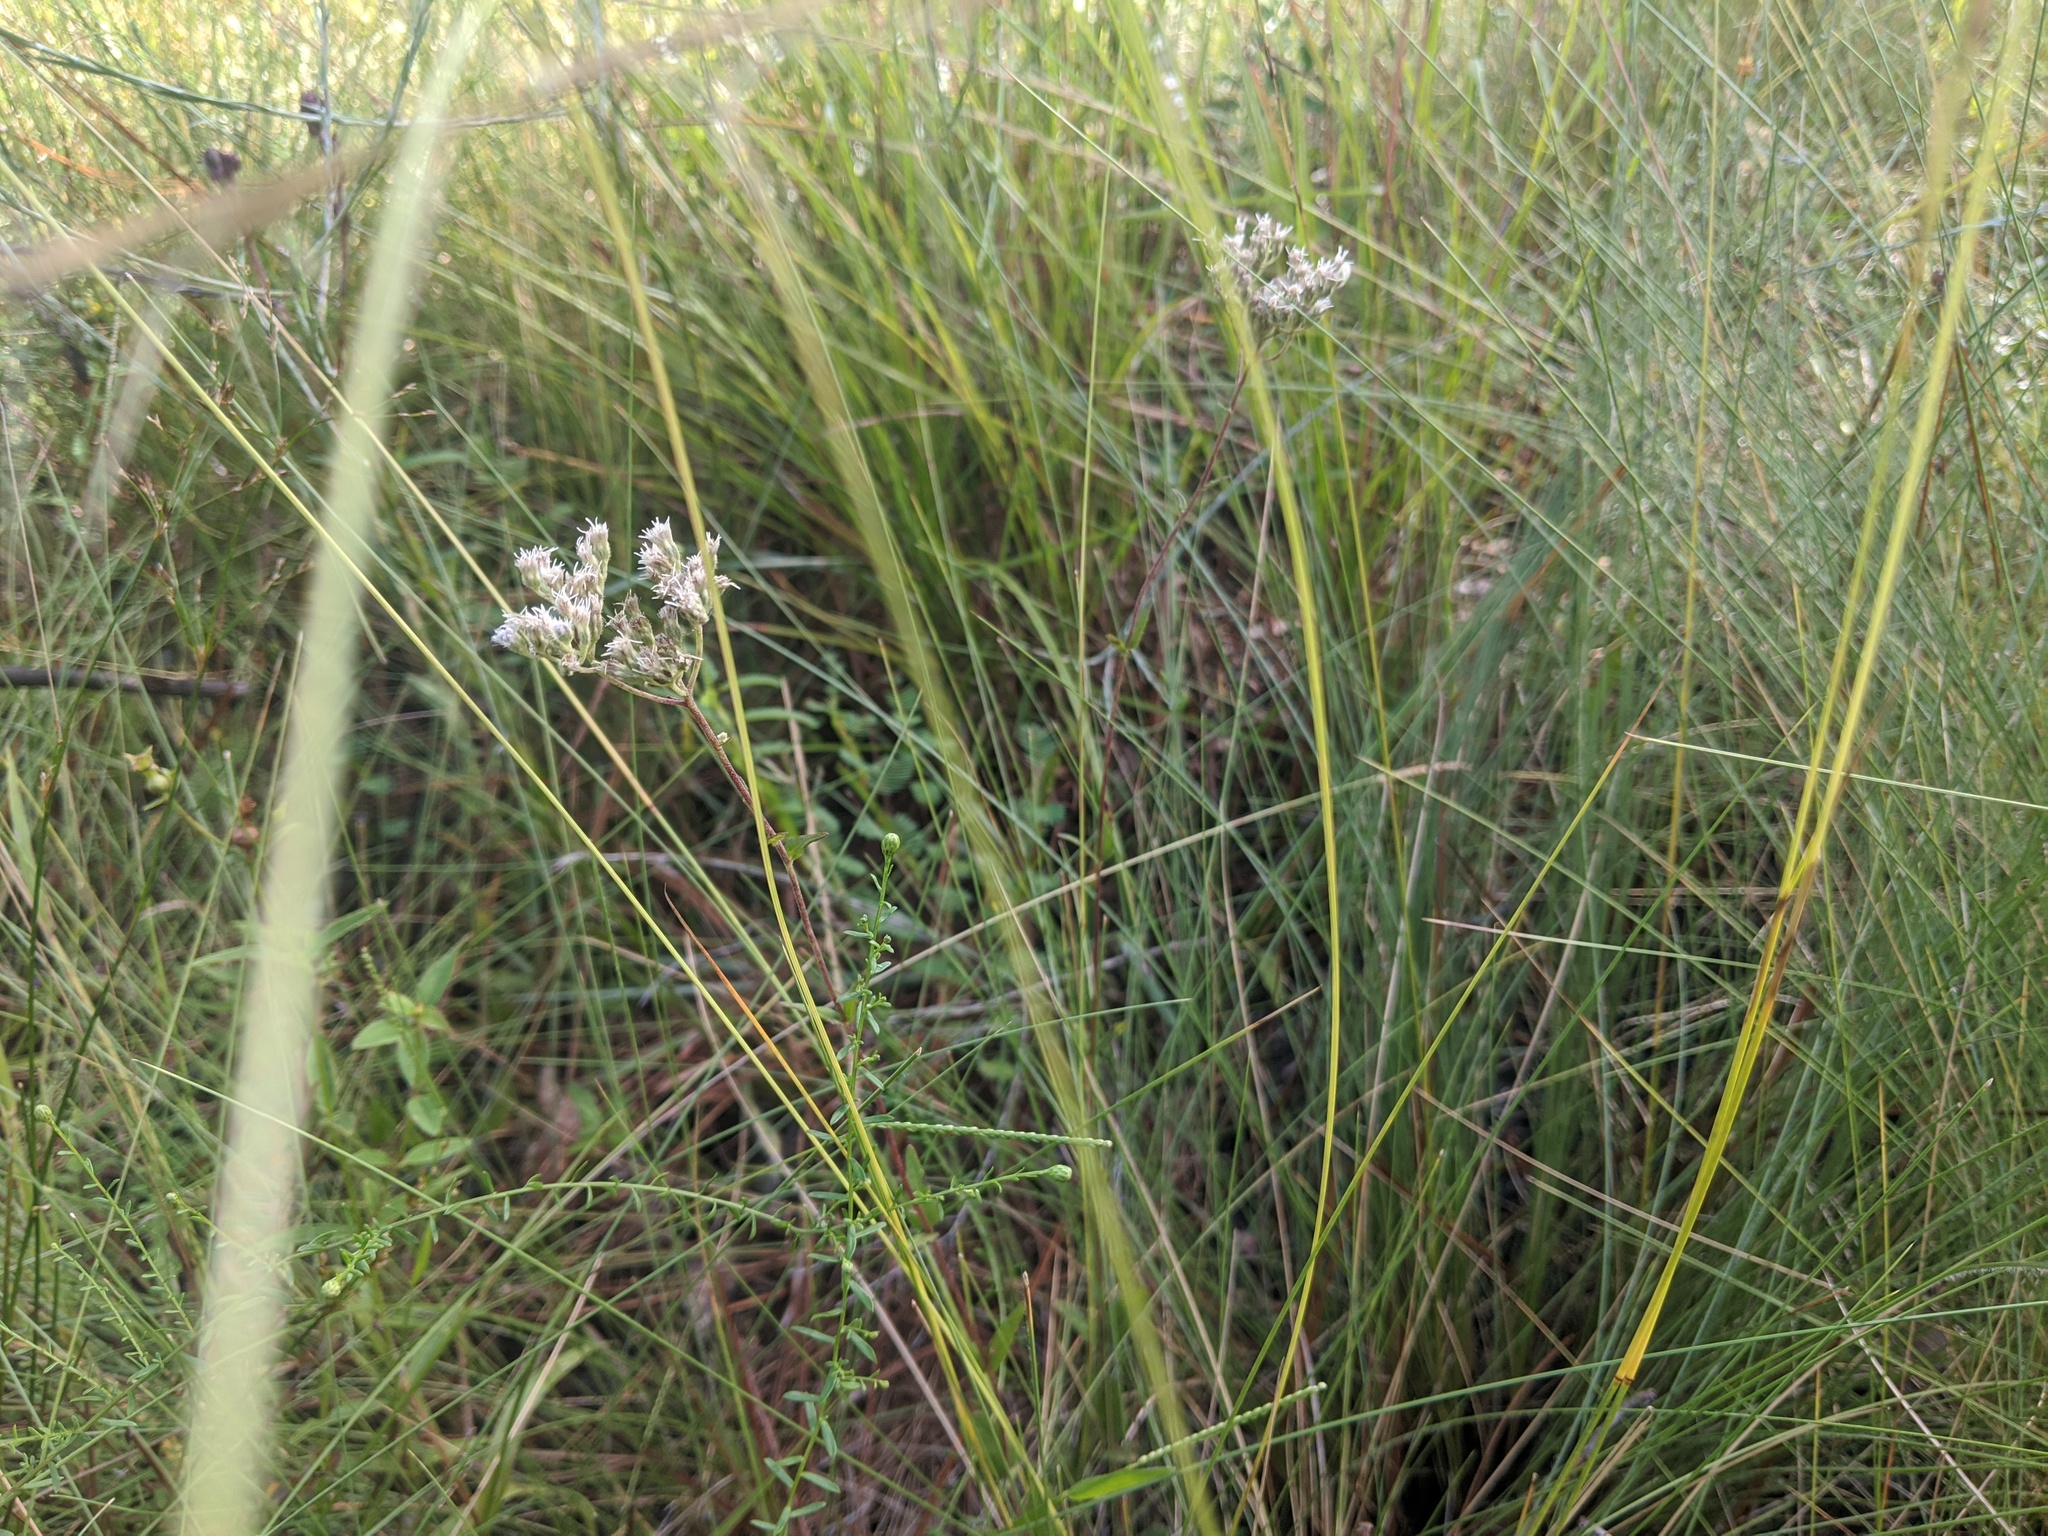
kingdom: Plantae
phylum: Tracheophyta
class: Magnoliopsida
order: Asterales
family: Asteraceae
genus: Eupatorium
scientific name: Eupatorium pilosum
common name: Rough boneset
